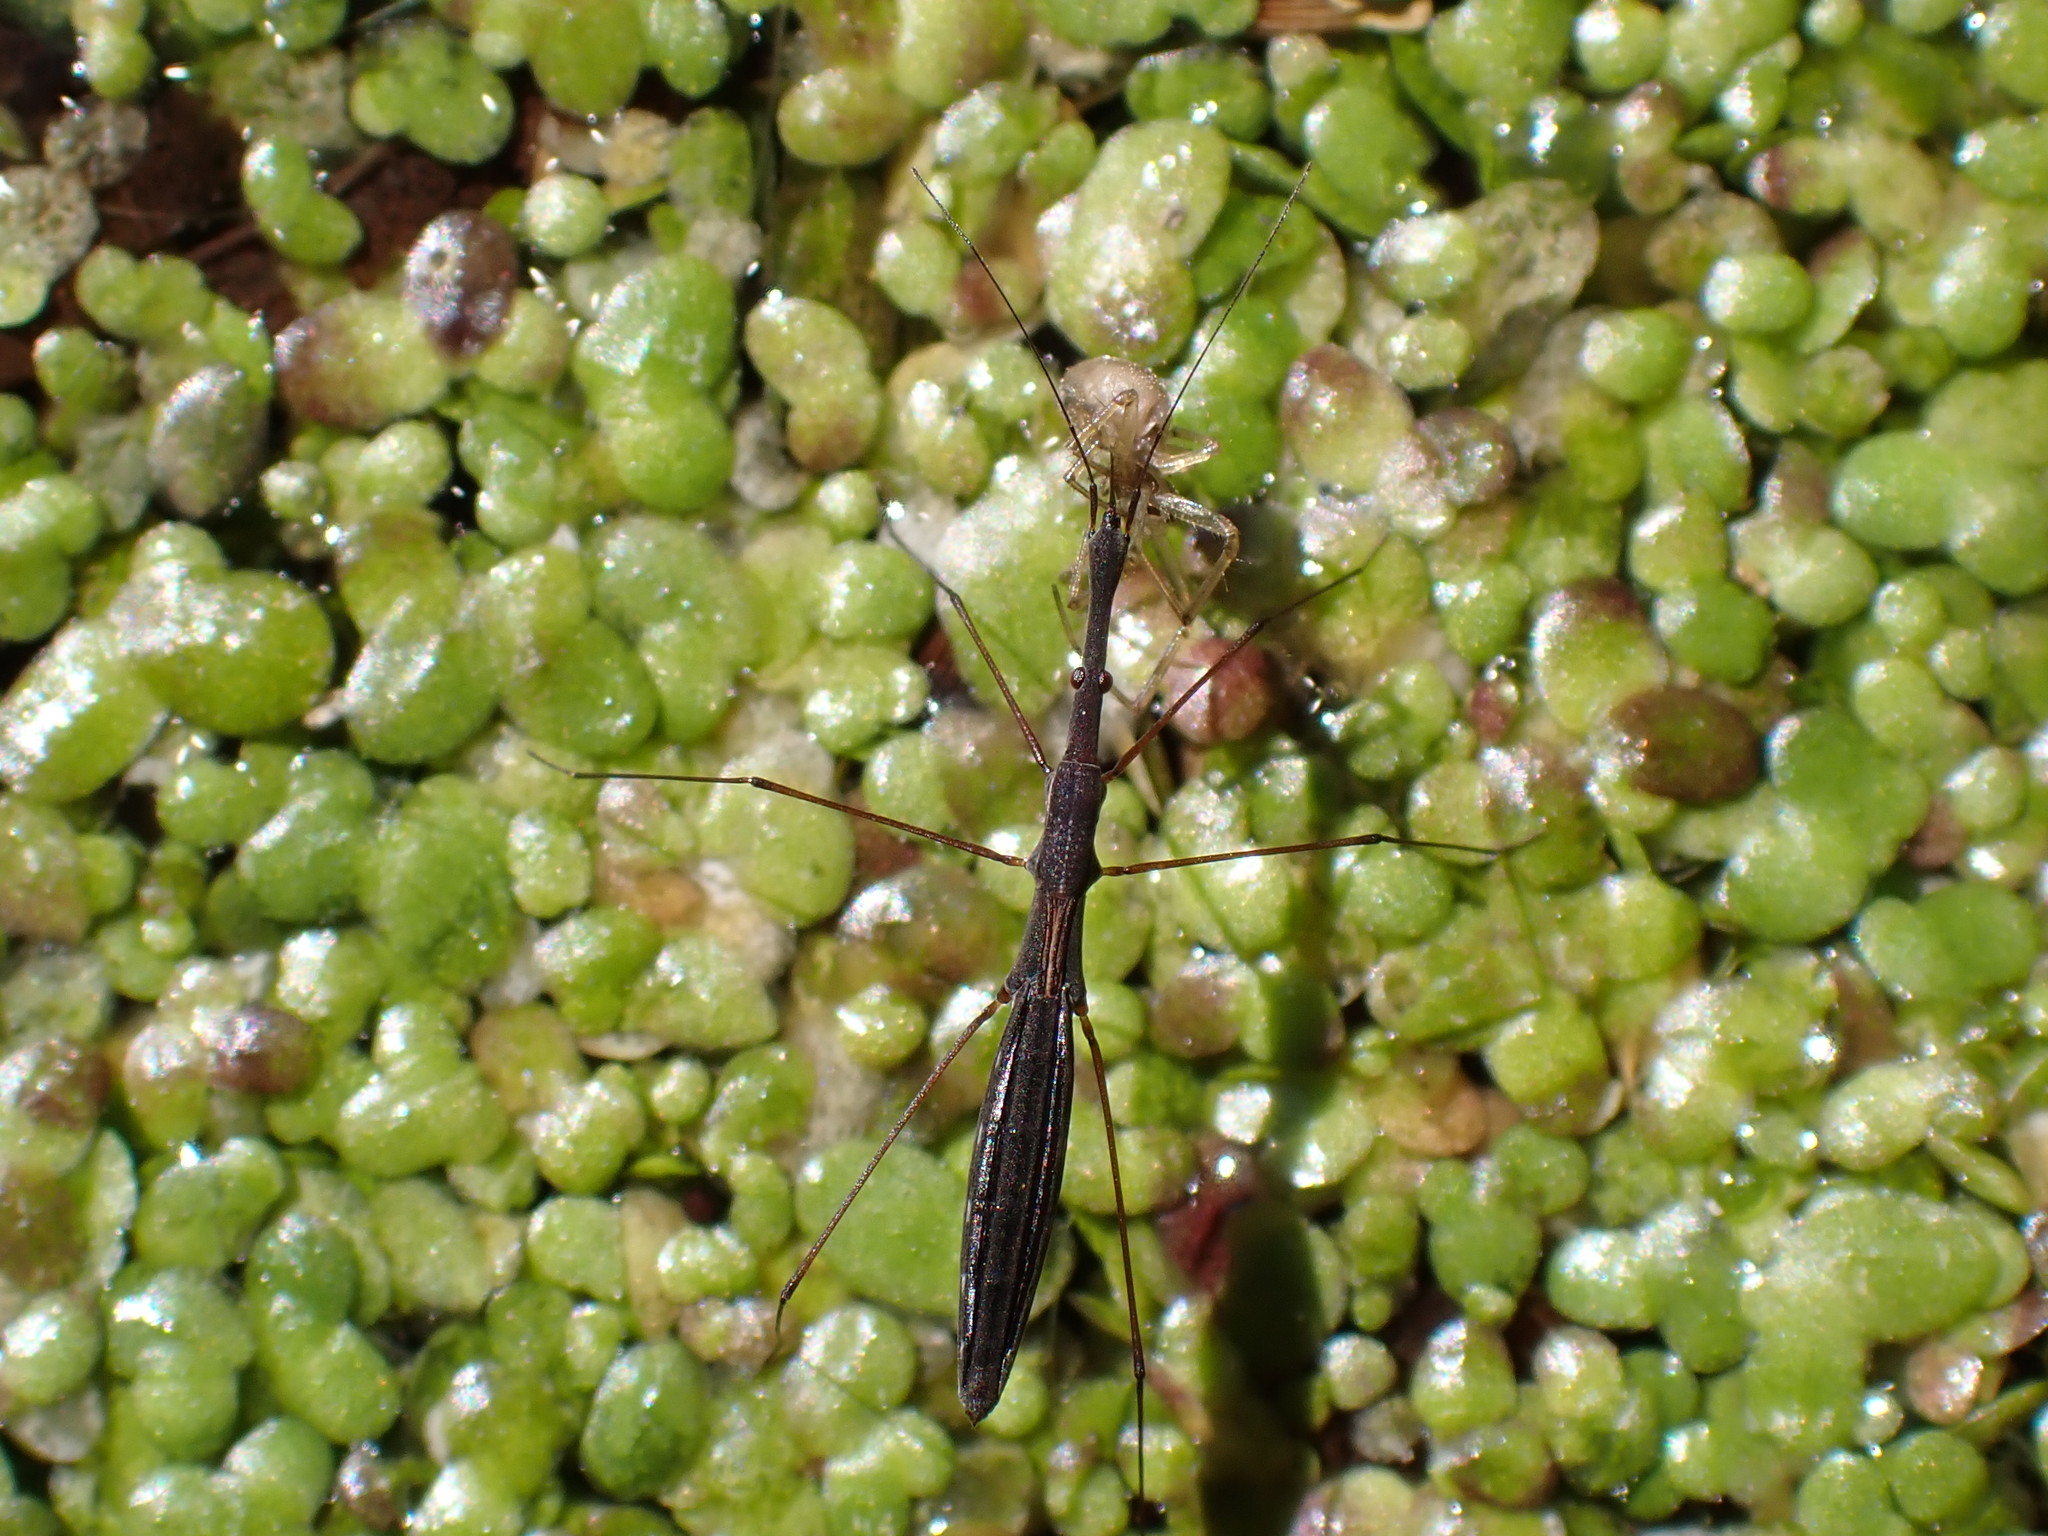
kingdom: Animalia
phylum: Arthropoda
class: Insecta
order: Hemiptera
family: Hydrometridae
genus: Hydrometra
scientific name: Hydrometra gracilenta
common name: Lesser water measurer
